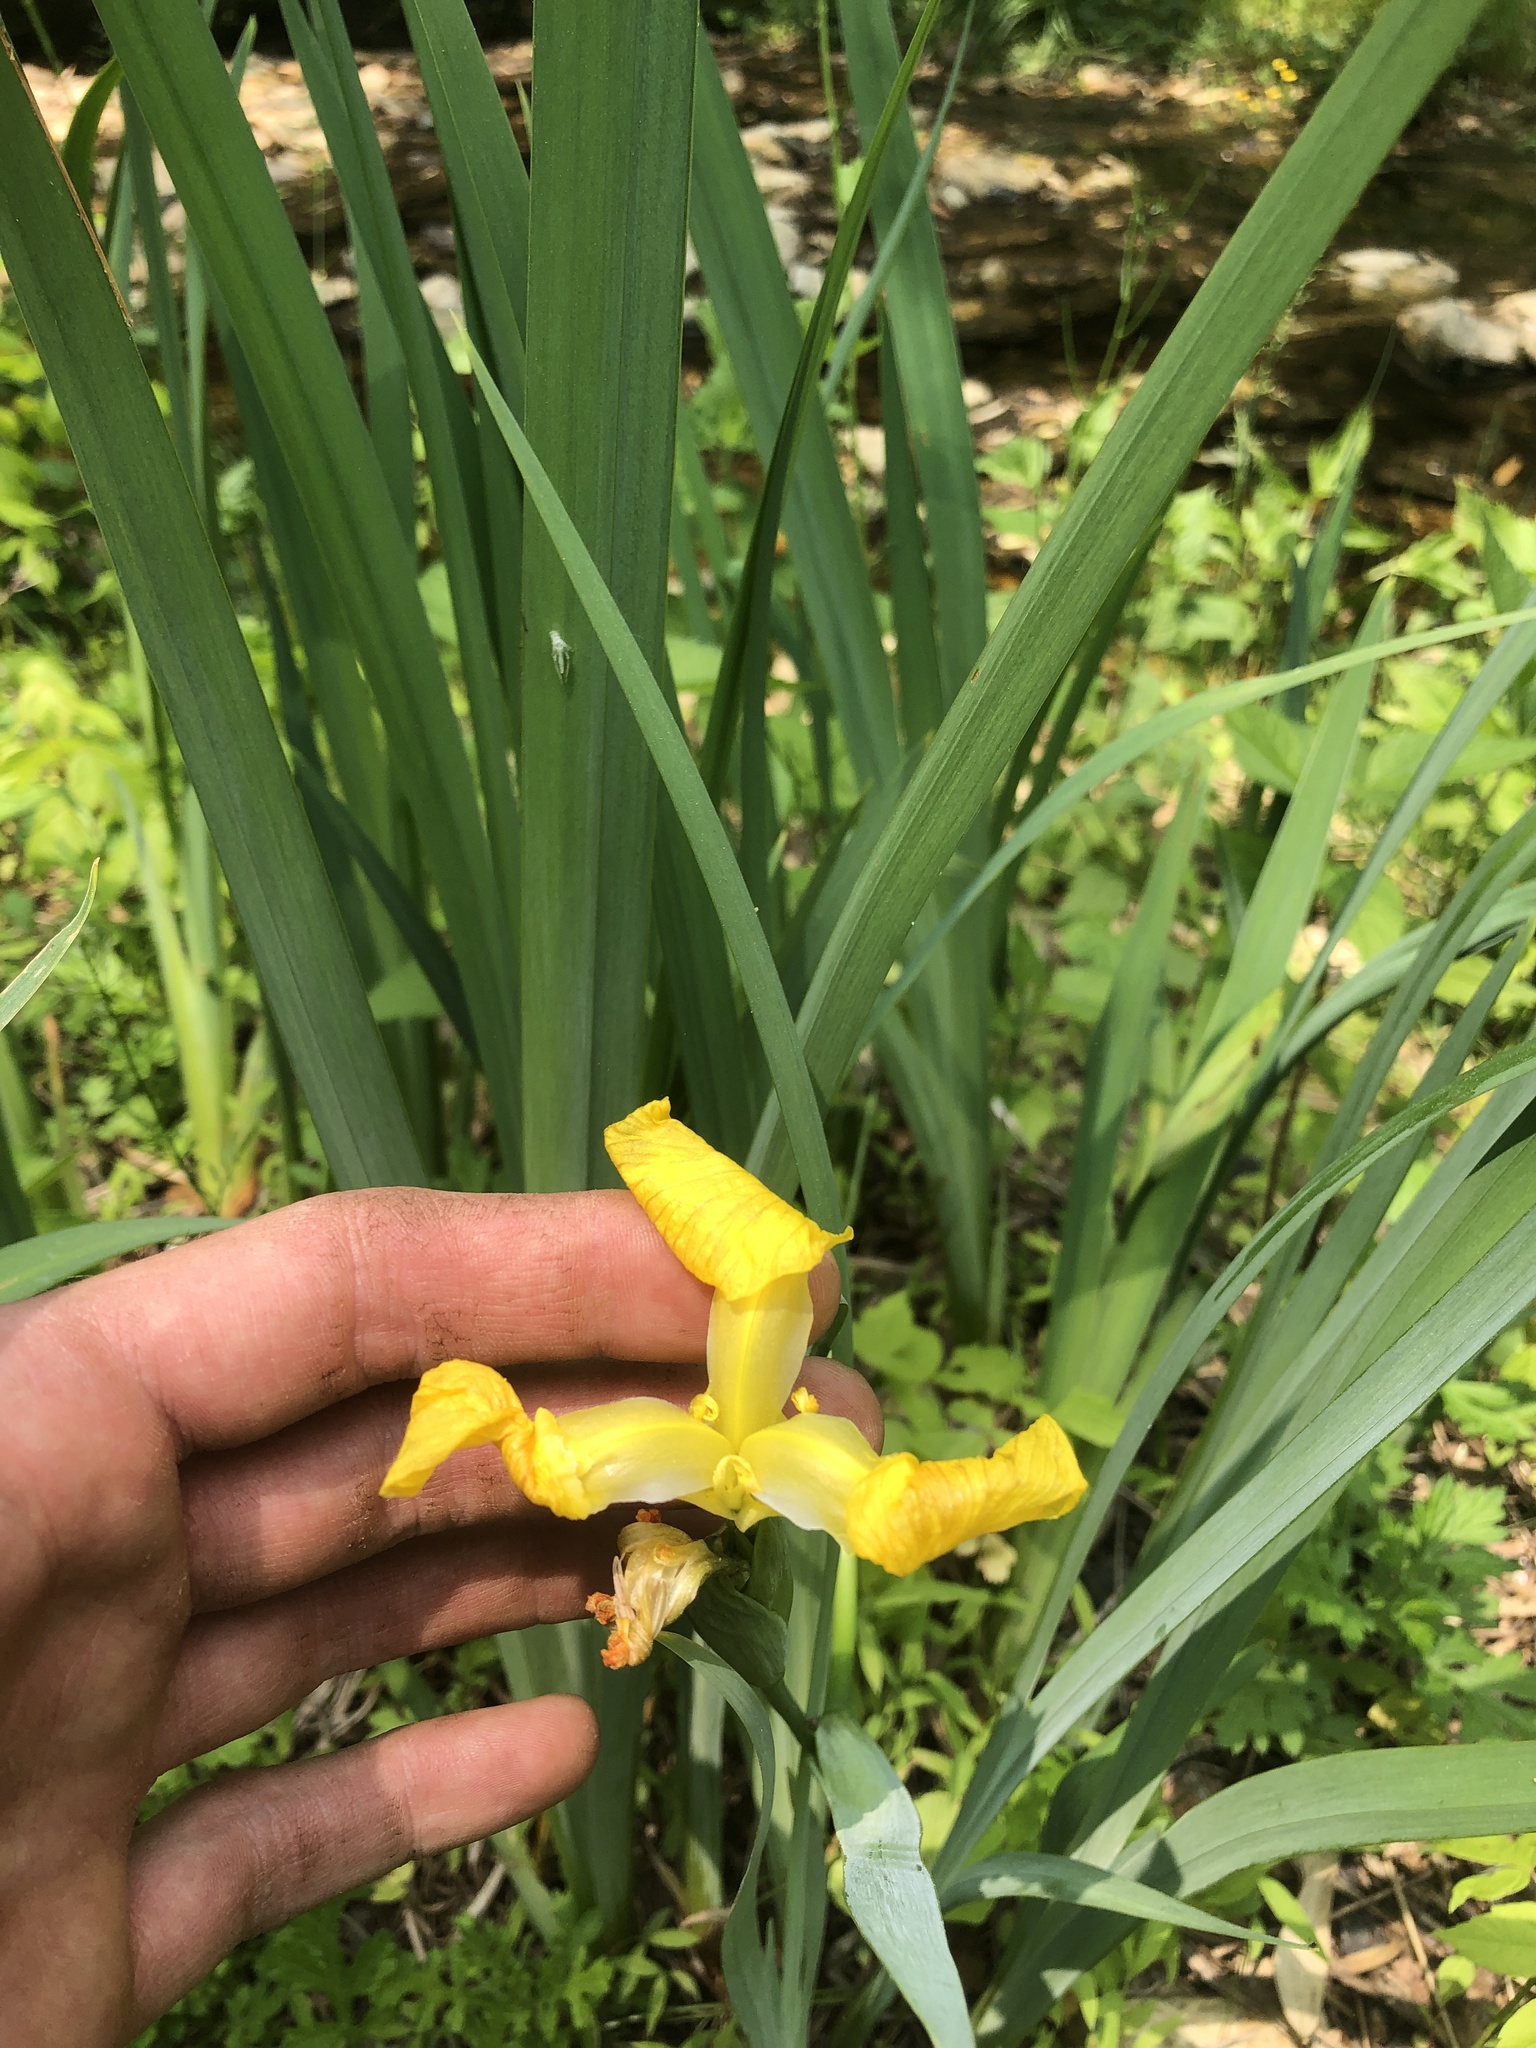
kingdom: Plantae
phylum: Tracheophyta
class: Liliopsida
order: Asparagales
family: Iridaceae
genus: Iris
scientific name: Iris pseudacorus
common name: Yellow flag
